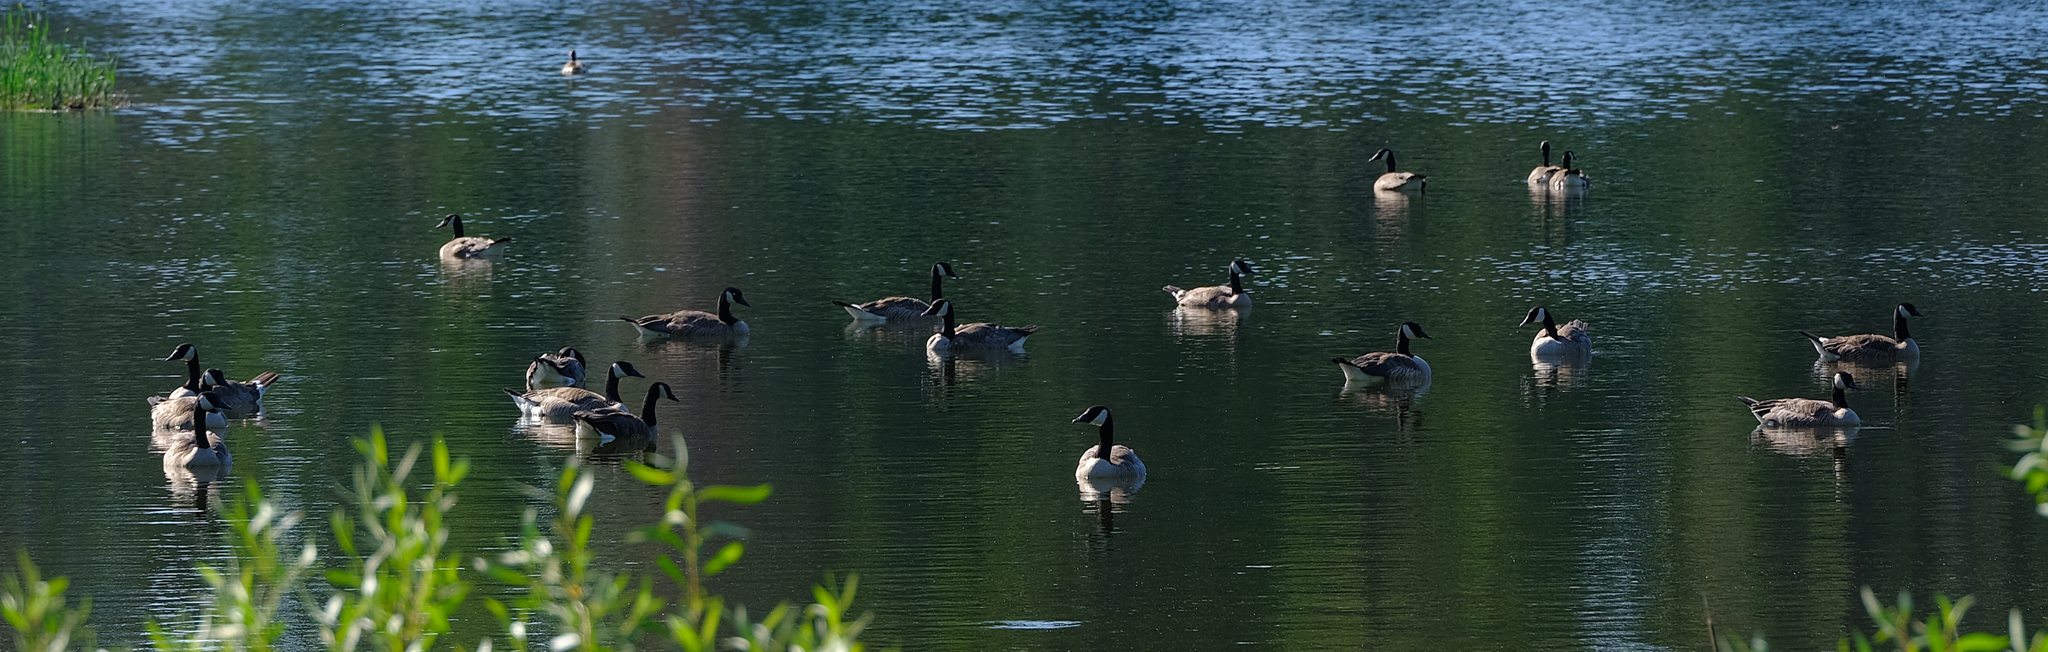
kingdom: Animalia
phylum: Chordata
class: Aves
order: Anseriformes
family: Anatidae
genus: Branta
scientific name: Branta canadensis
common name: Canada goose
